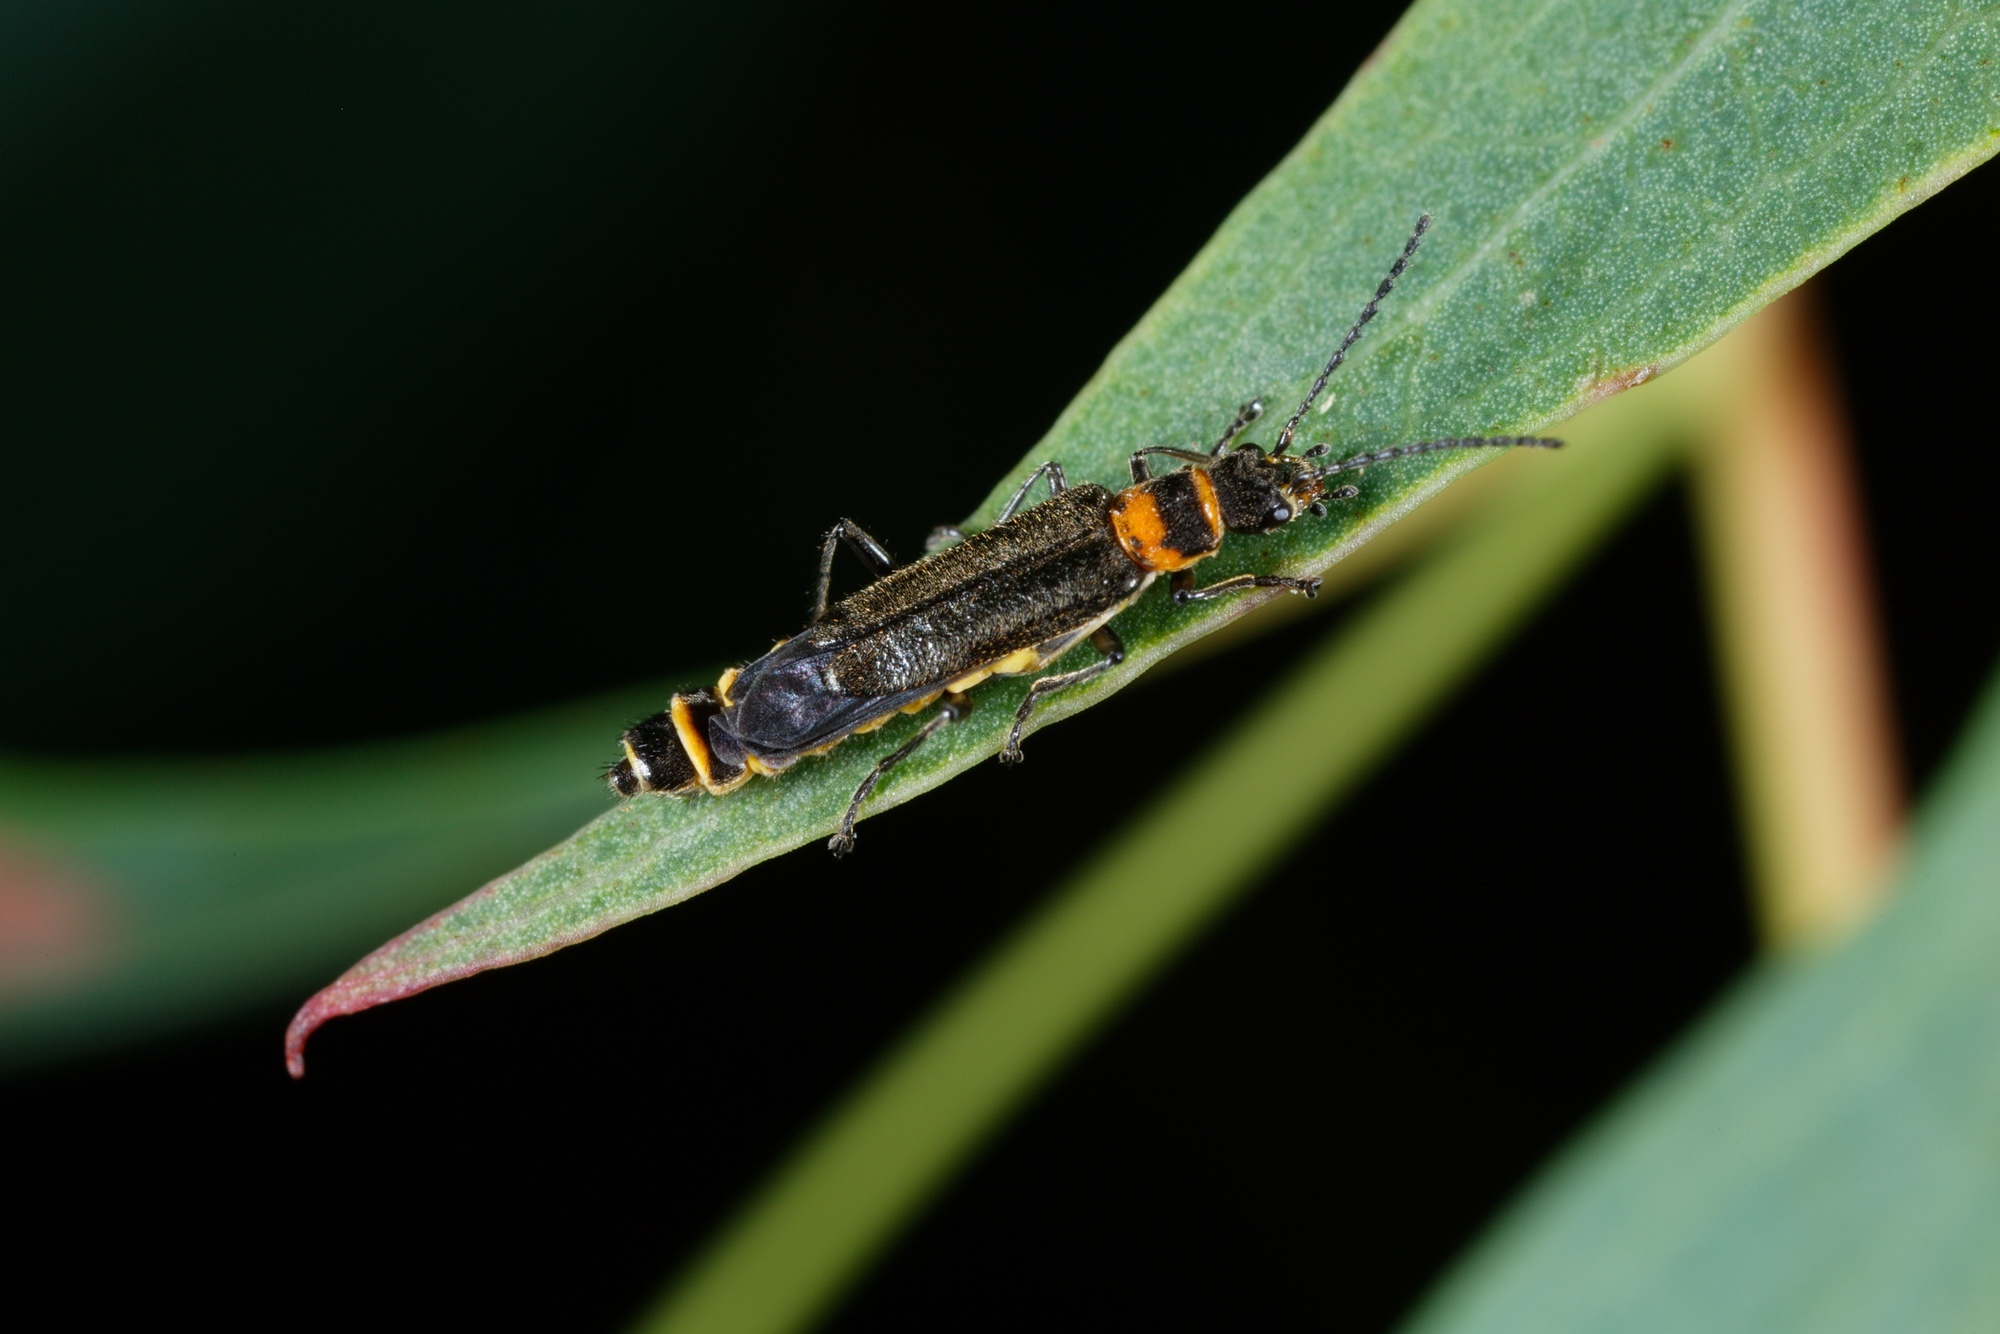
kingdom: Animalia
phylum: Arthropoda
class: Insecta
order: Coleoptera
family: Cantharidae
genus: Chauliognathus
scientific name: Chauliognathus
